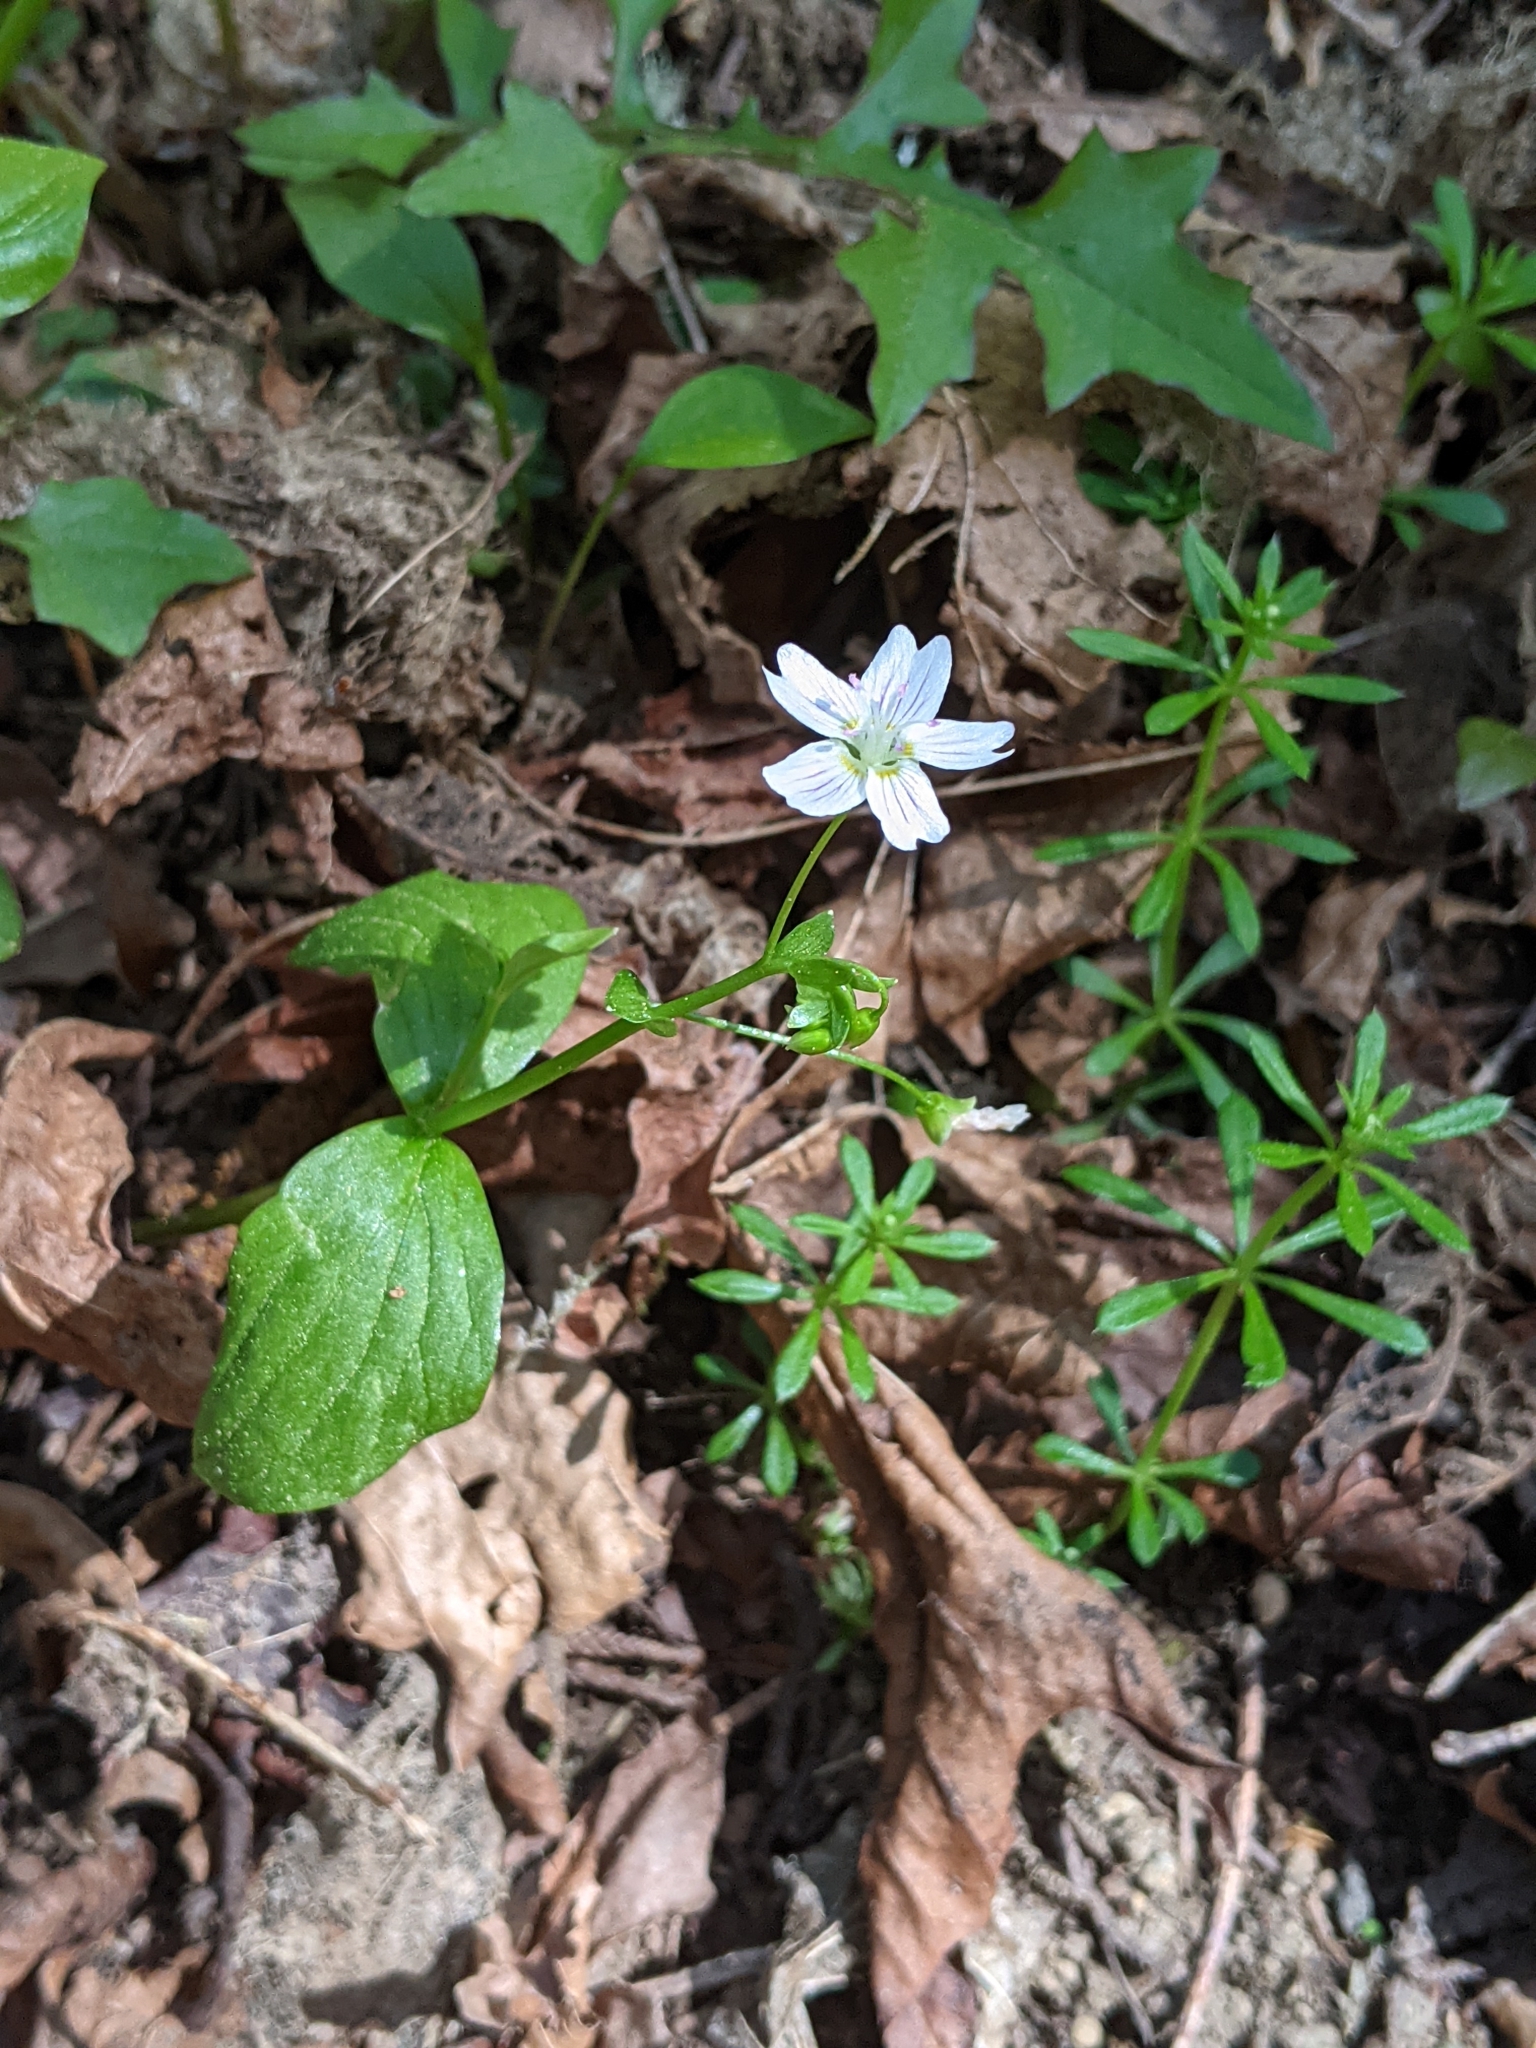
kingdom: Plantae
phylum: Tracheophyta
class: Magnoliopsida
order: Caryophyllales
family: Montiaceae
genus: Claytonia
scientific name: Claytonia sibirica
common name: Pink purslane
